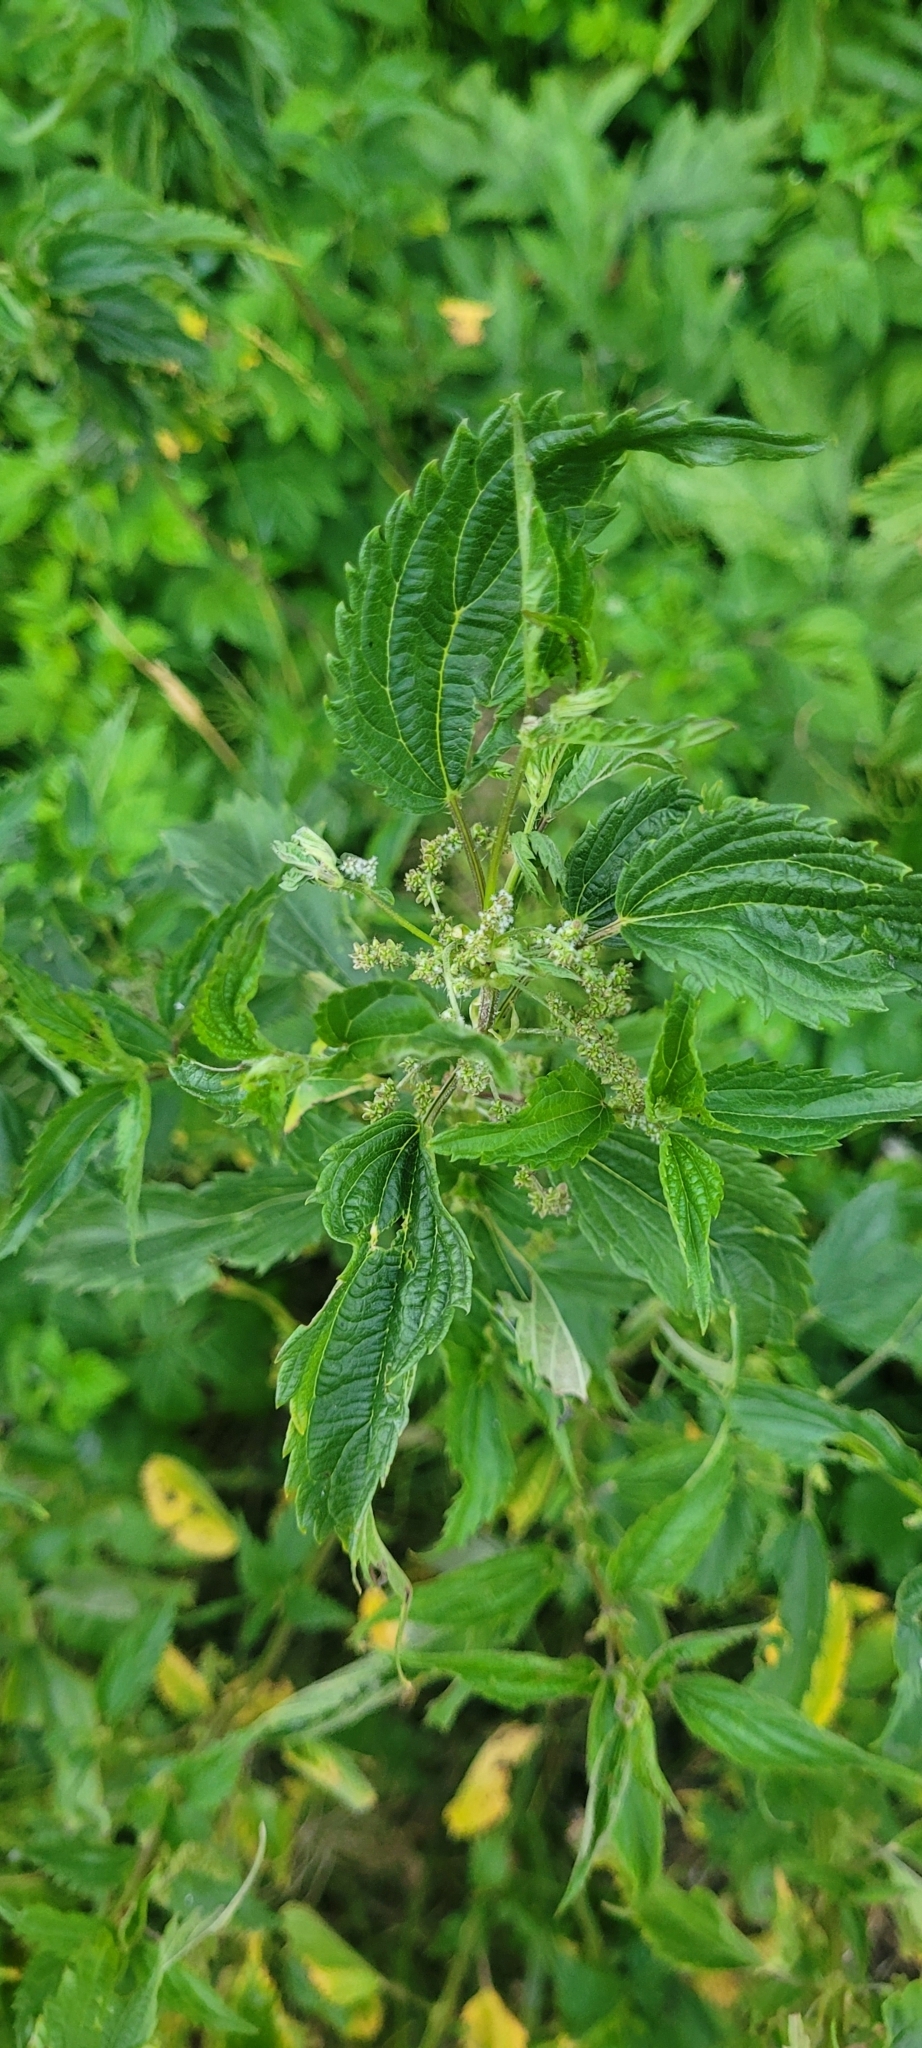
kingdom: Plantae
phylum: Tracheophyta
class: Magnoliopsida
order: Rosales
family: Urticaceae
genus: Urtica
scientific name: Urtica gracilis
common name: Slender stinging nettle
